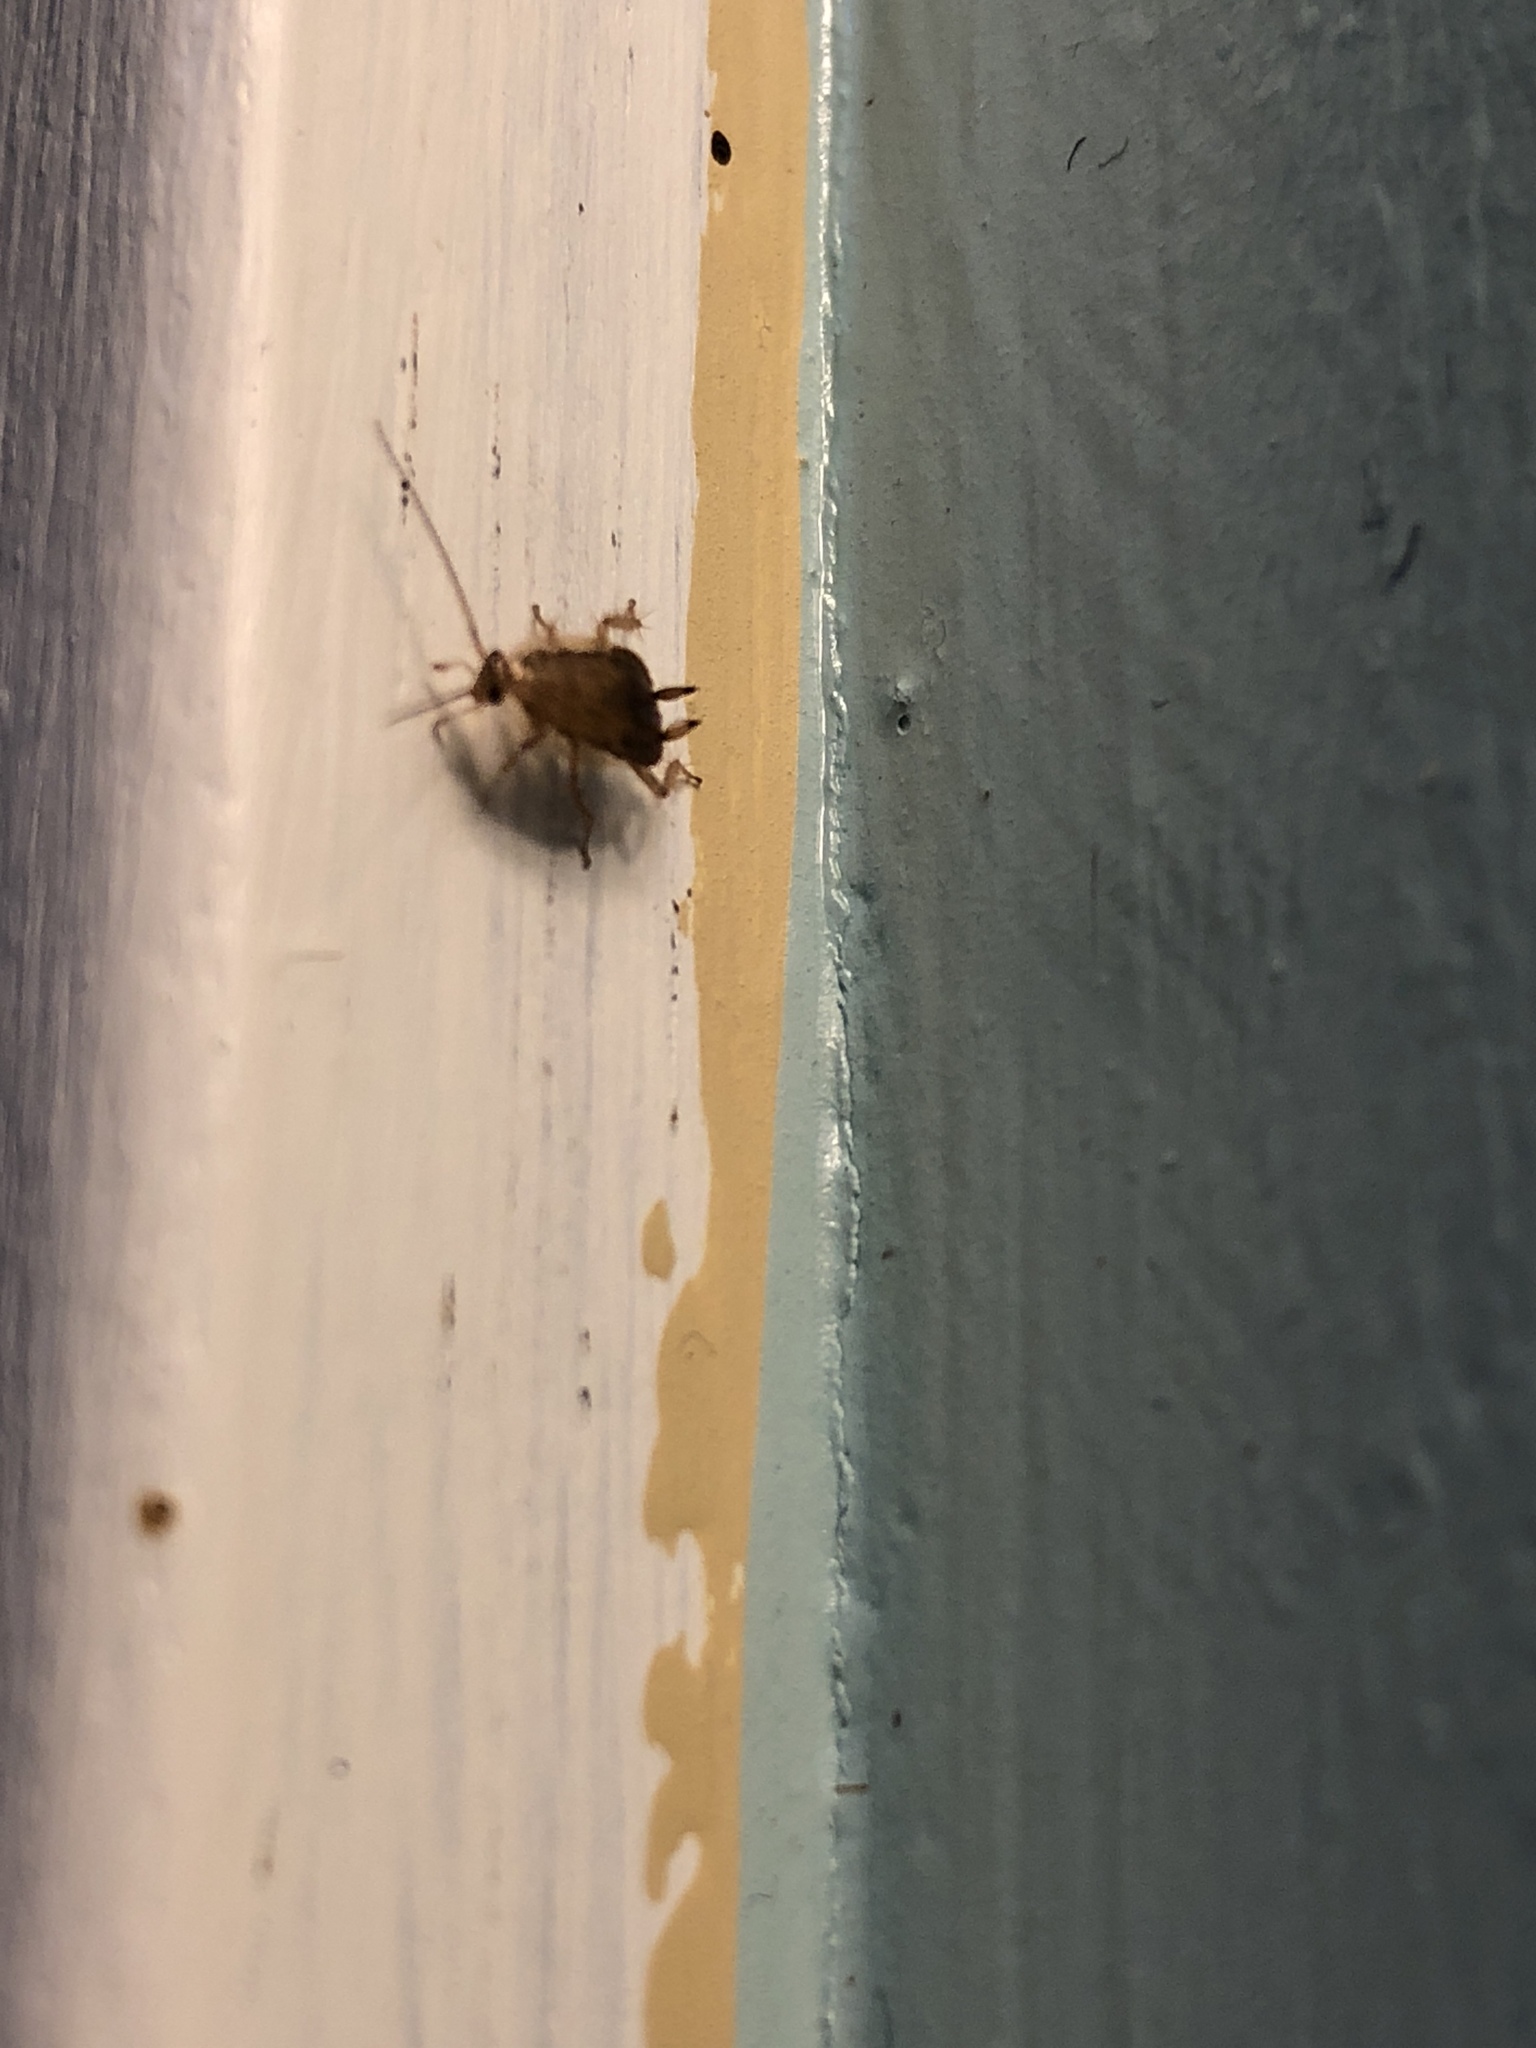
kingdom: Animalia
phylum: Arthropoda
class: Insecta
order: Blattodea
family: Ectobiidae
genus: Blattella
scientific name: Blattella germanica
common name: German cockroach
